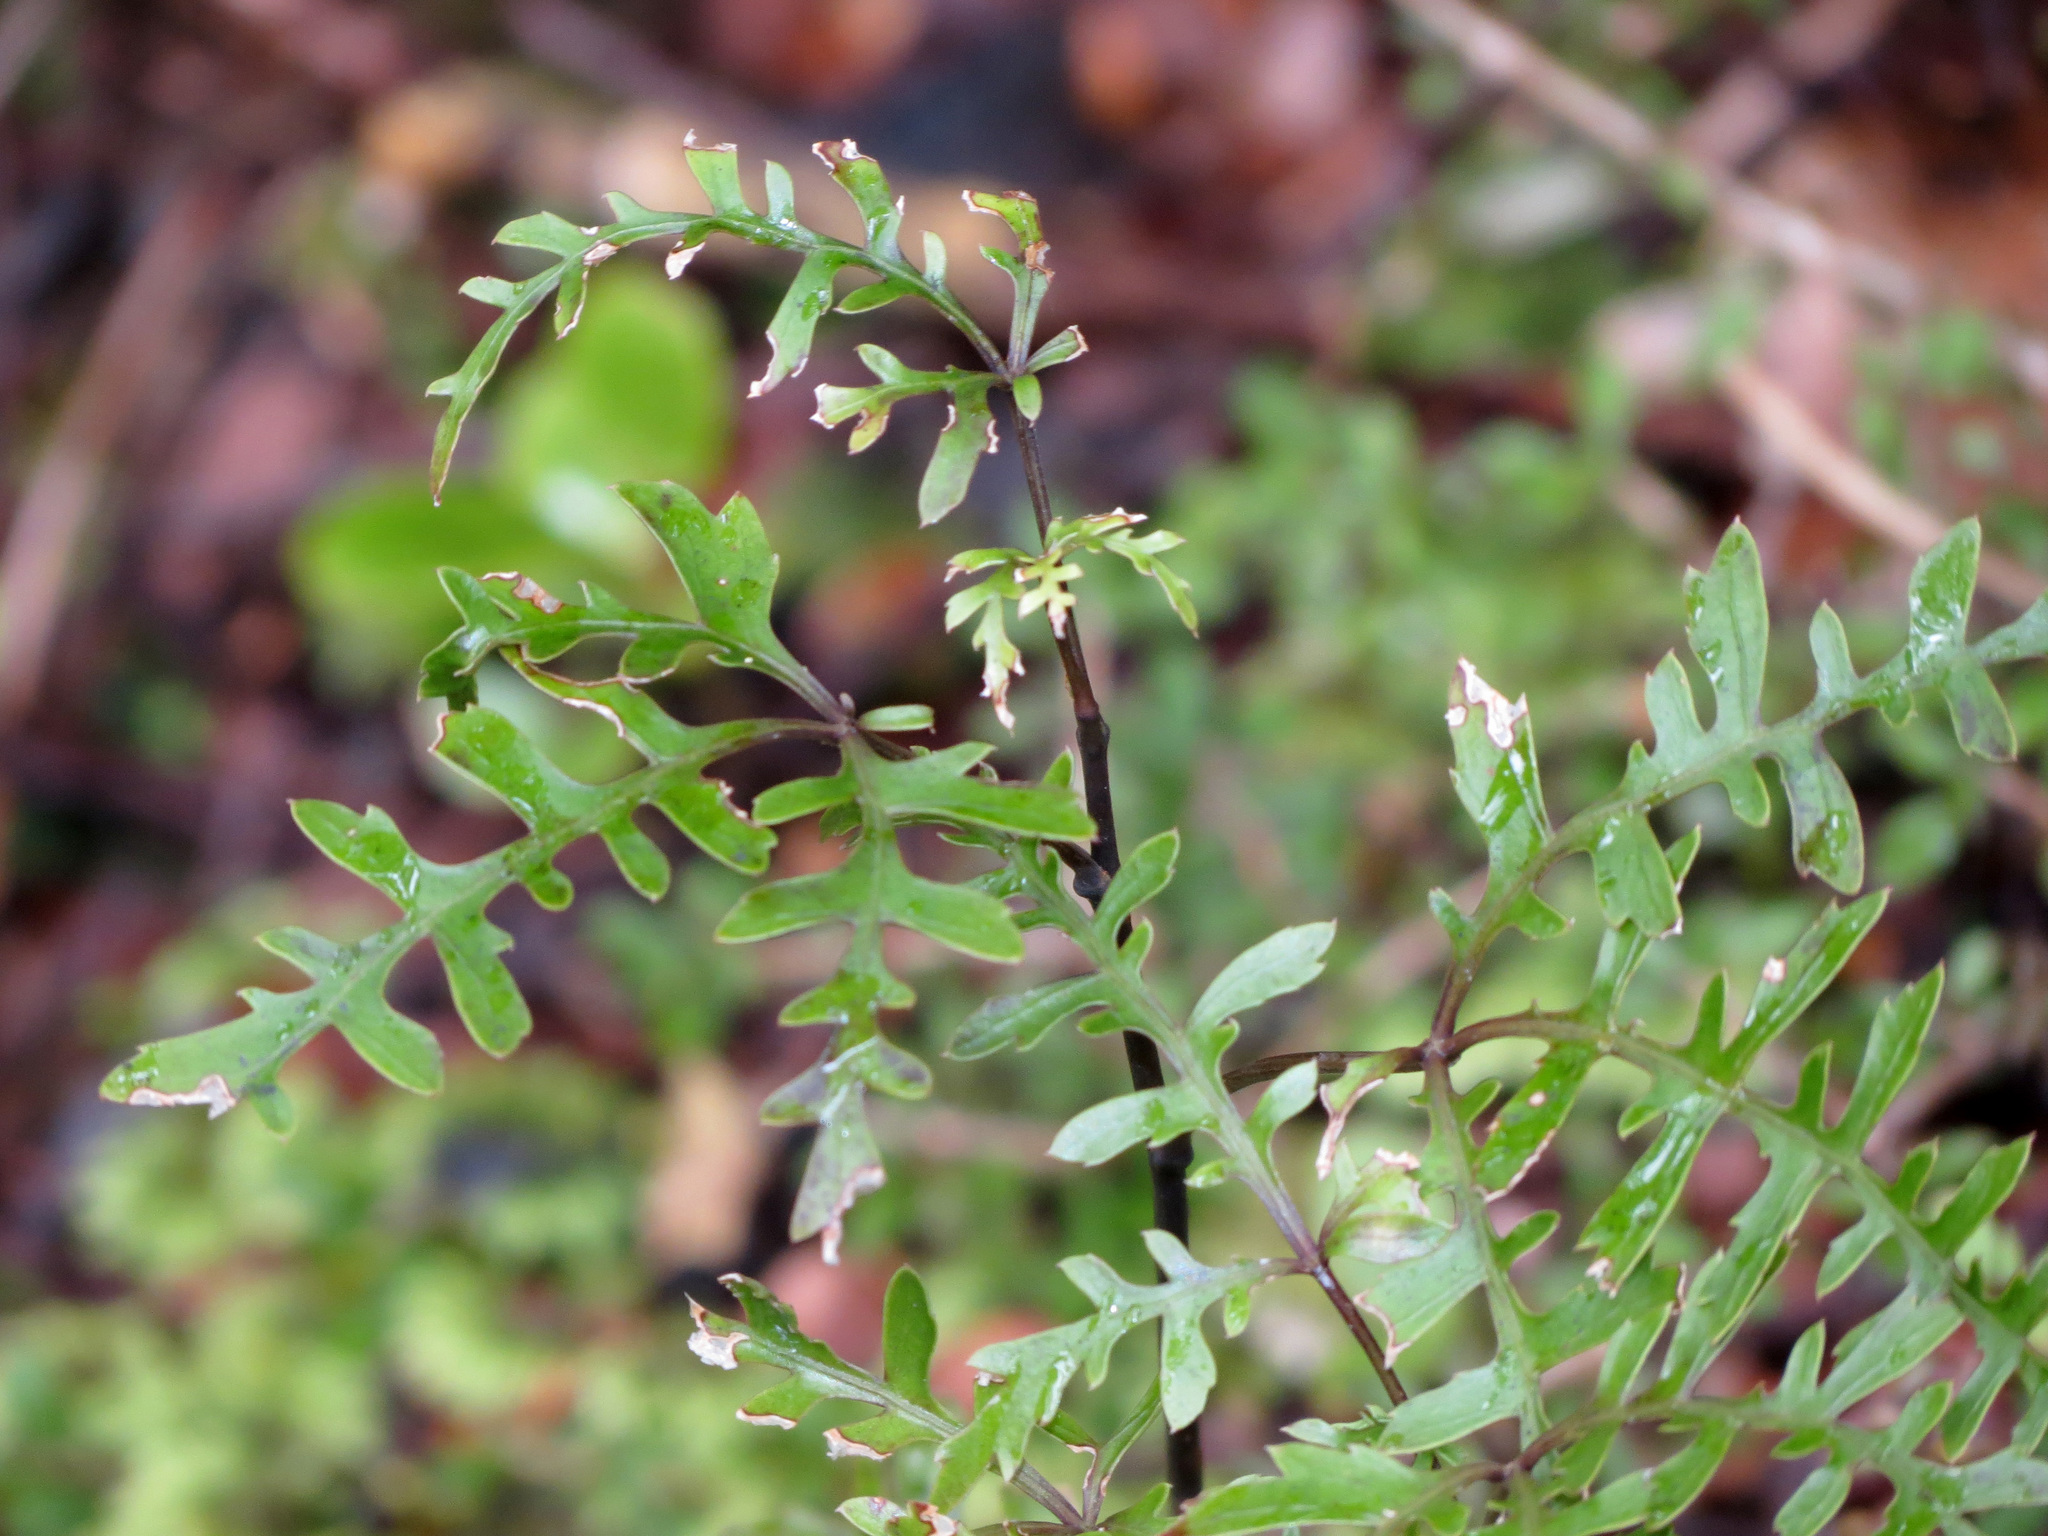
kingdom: Plantae
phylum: Tracheophyta
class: Magnoliopsida
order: Apiales
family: Araliaceae
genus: Raukaua
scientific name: Raukaua simplex
